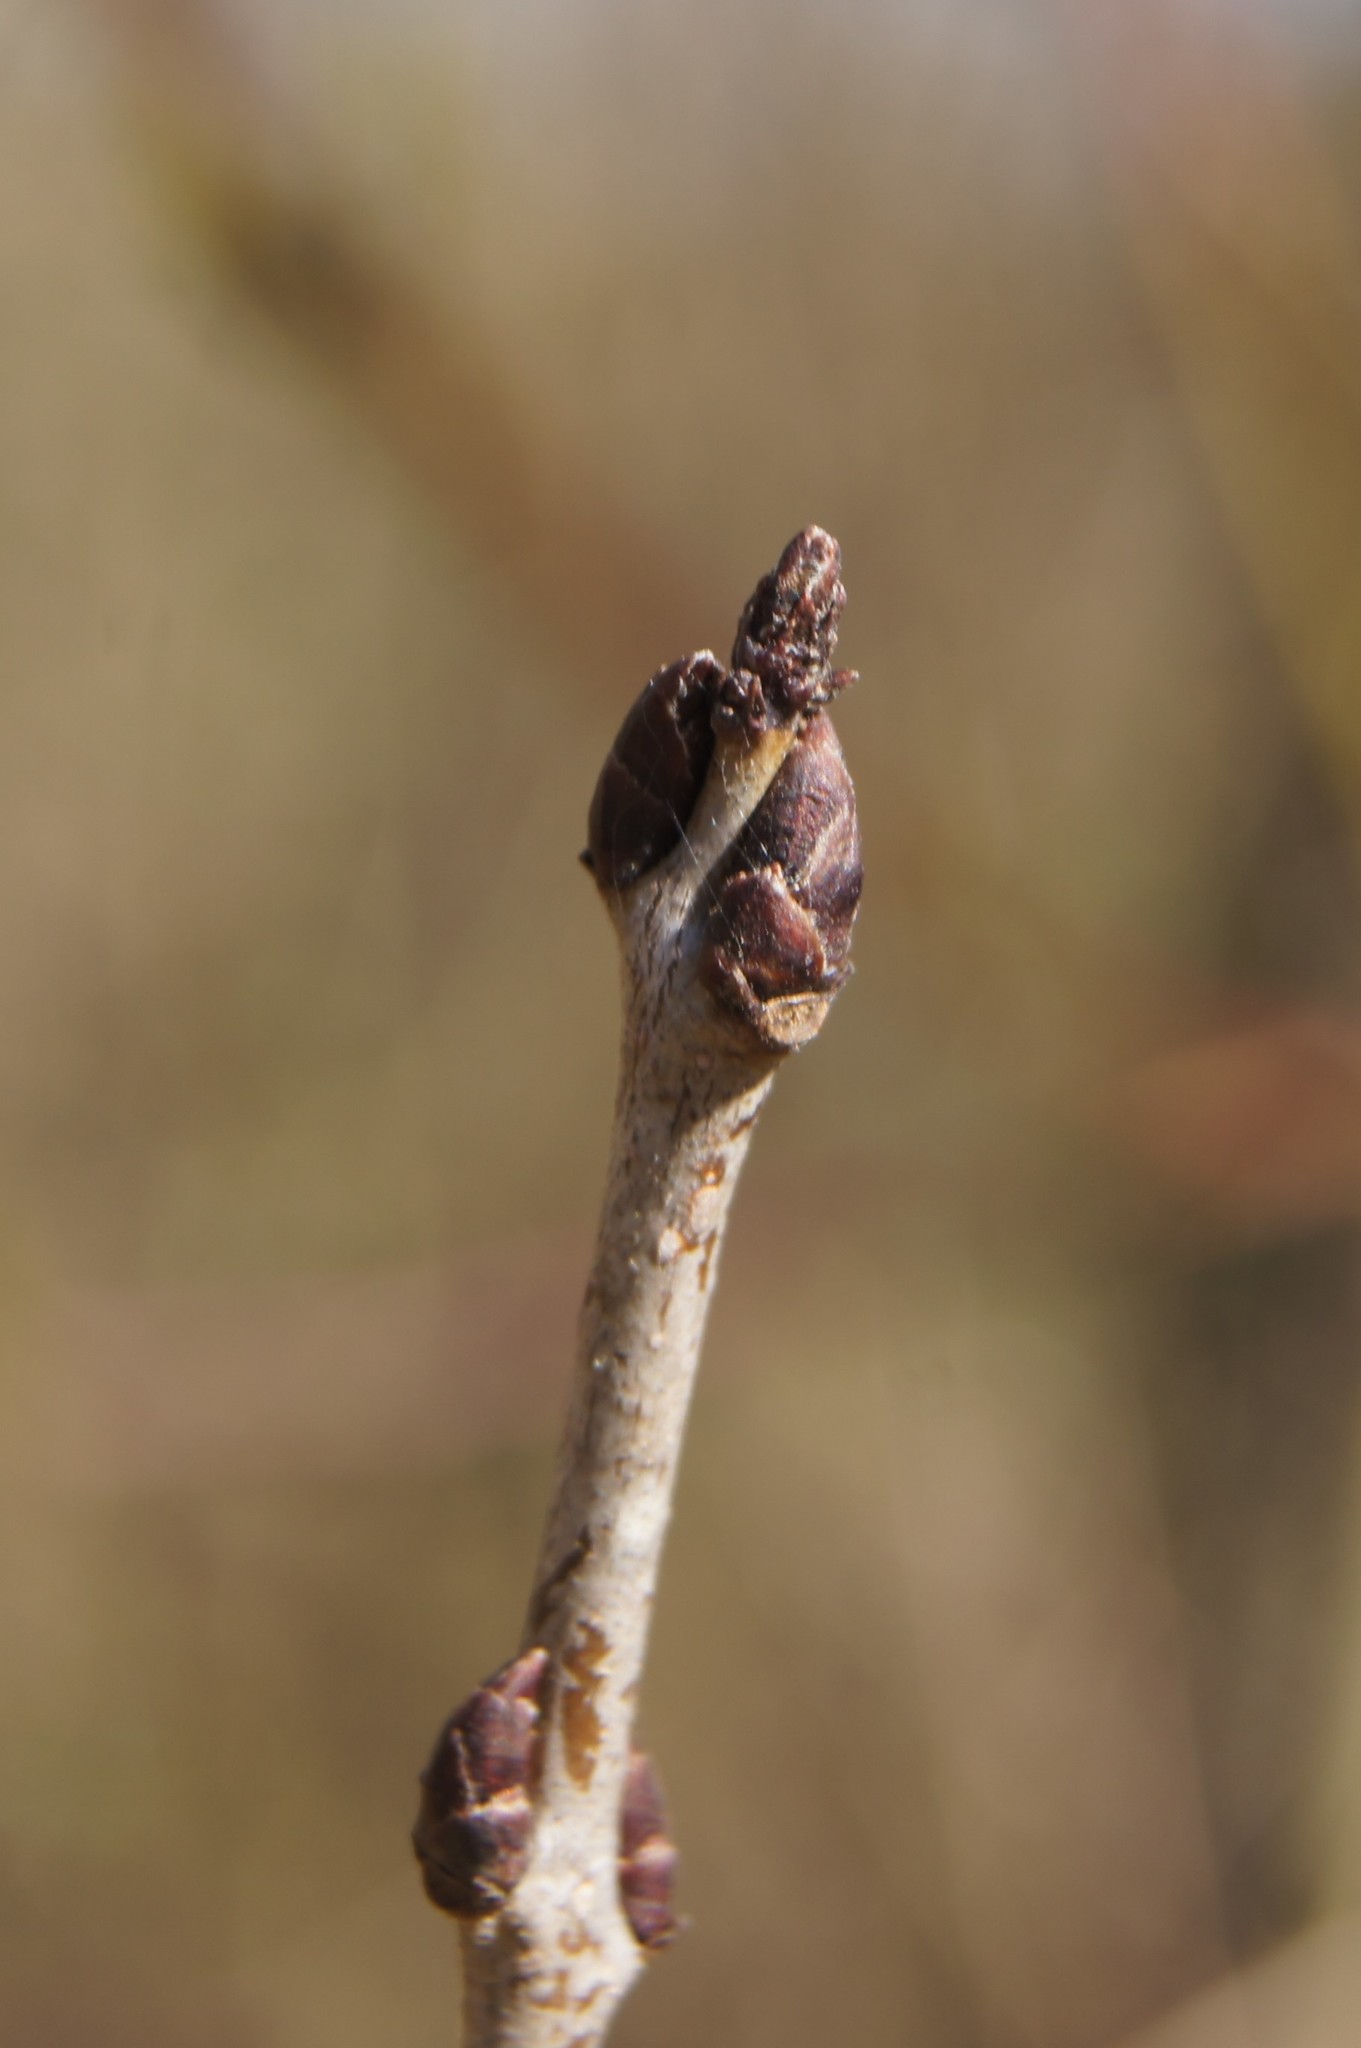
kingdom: Plantae
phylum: Tracheophyta
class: Magnoliopsida
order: Rosales
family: Rhamnaceae
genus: Rhamnus
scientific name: Rhamnus cathartica
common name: Common buckthorn
